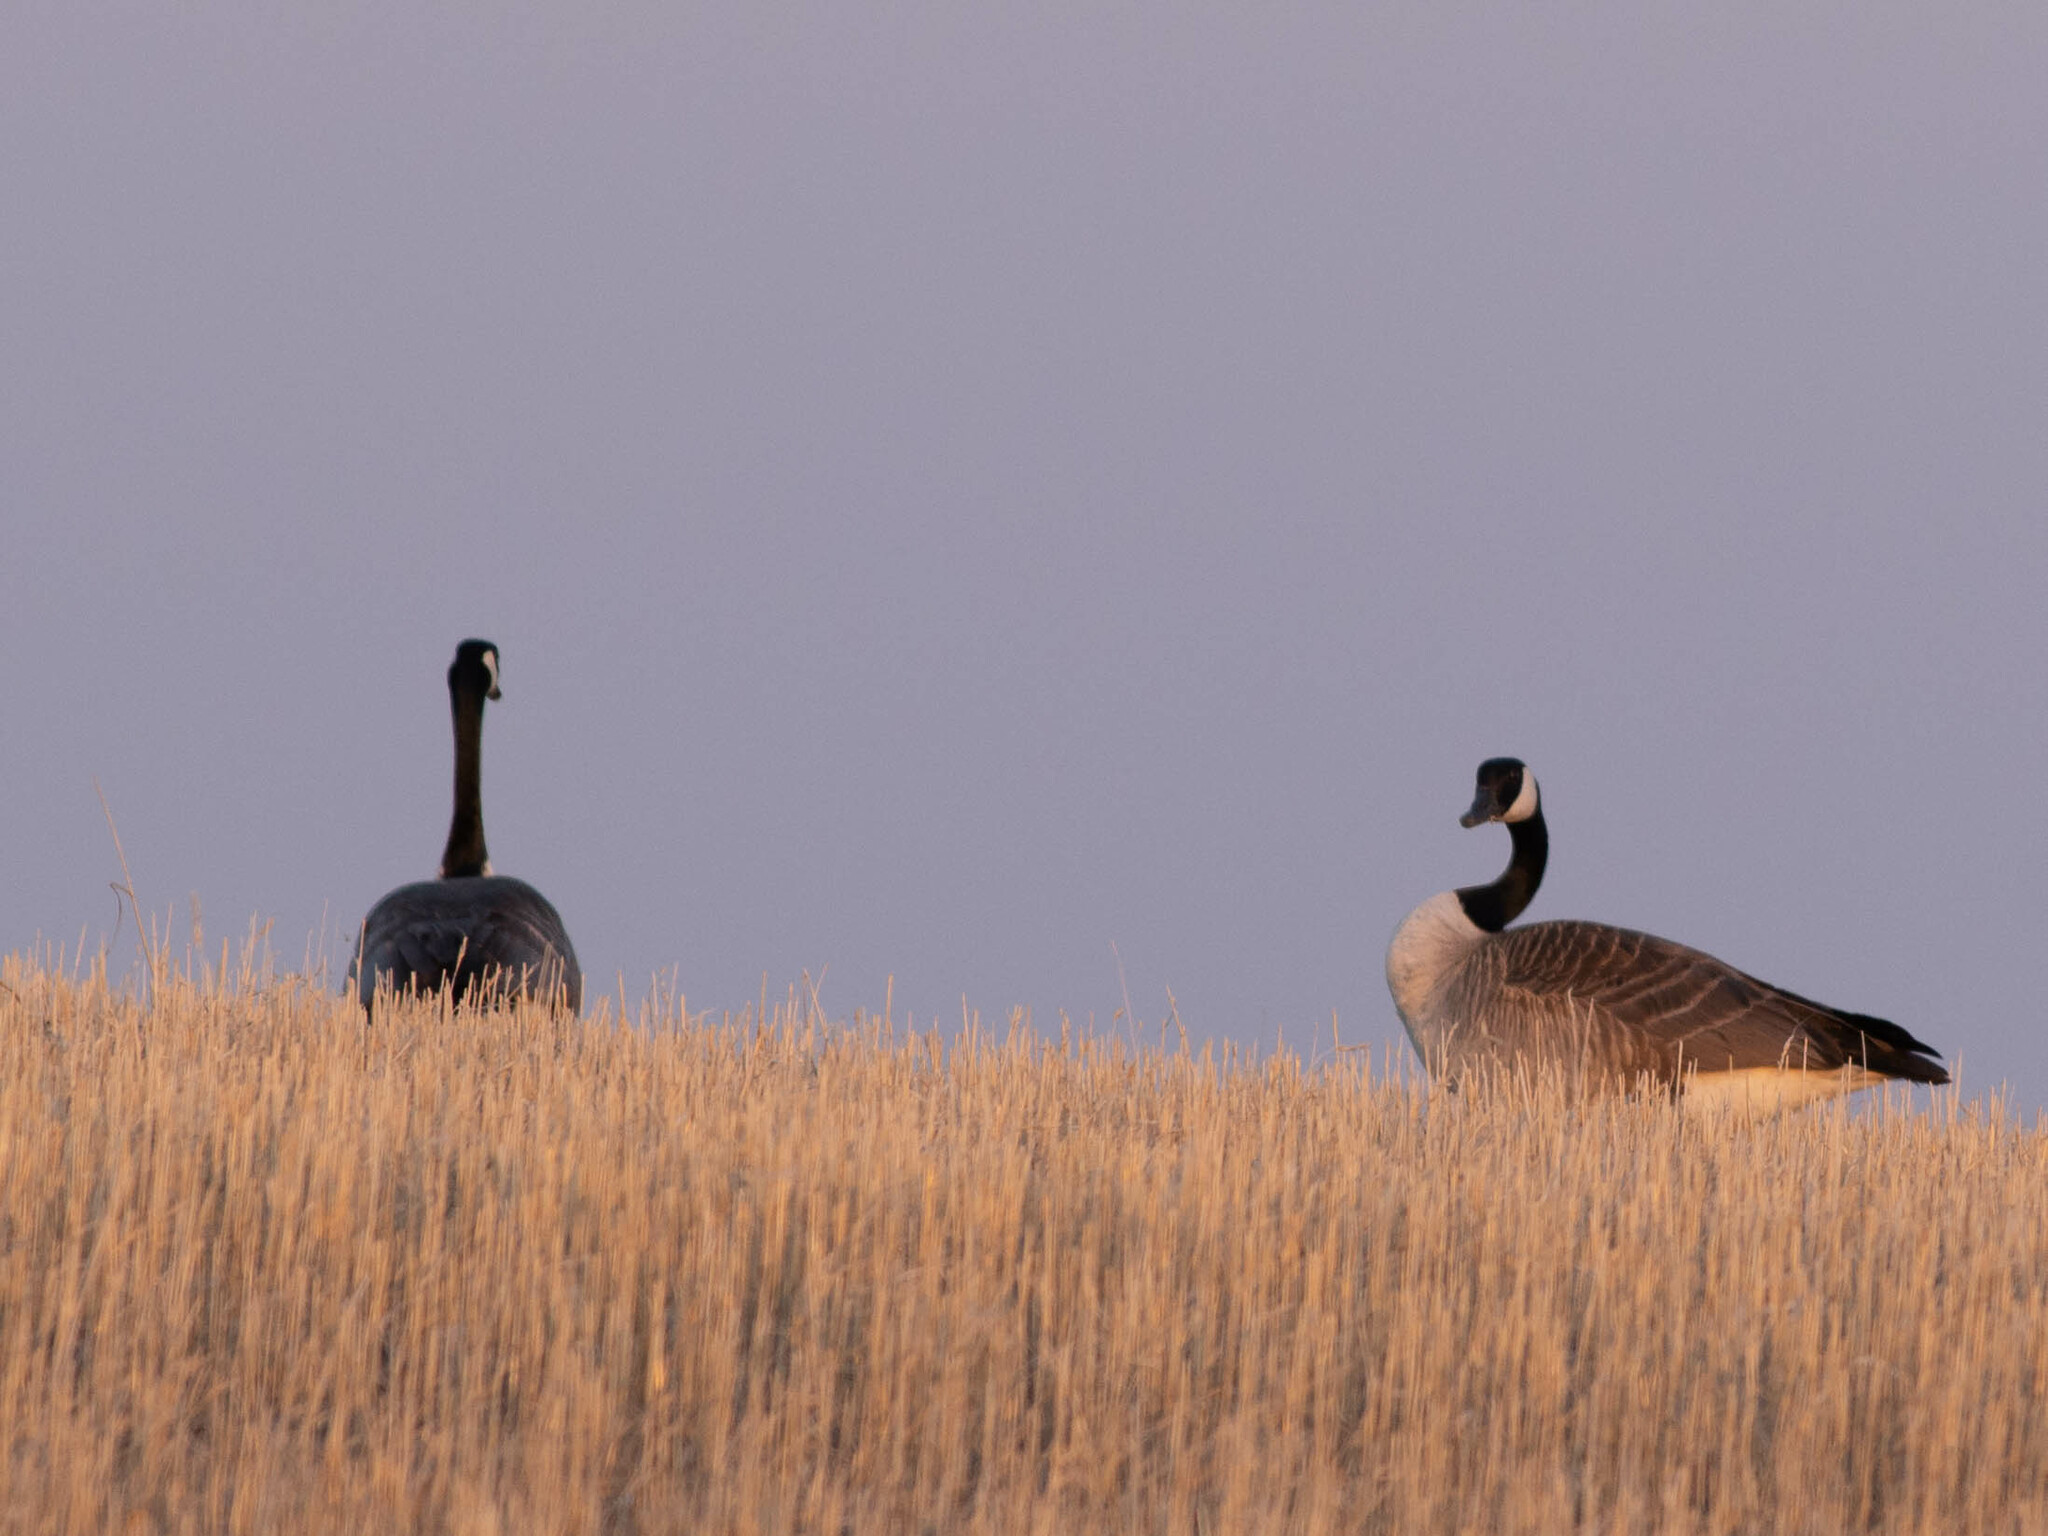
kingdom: Animalia
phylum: Chordata
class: Aves
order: Anseriformes
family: Anatidae
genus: Branta
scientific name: Branta canadensis
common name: Canada goose
